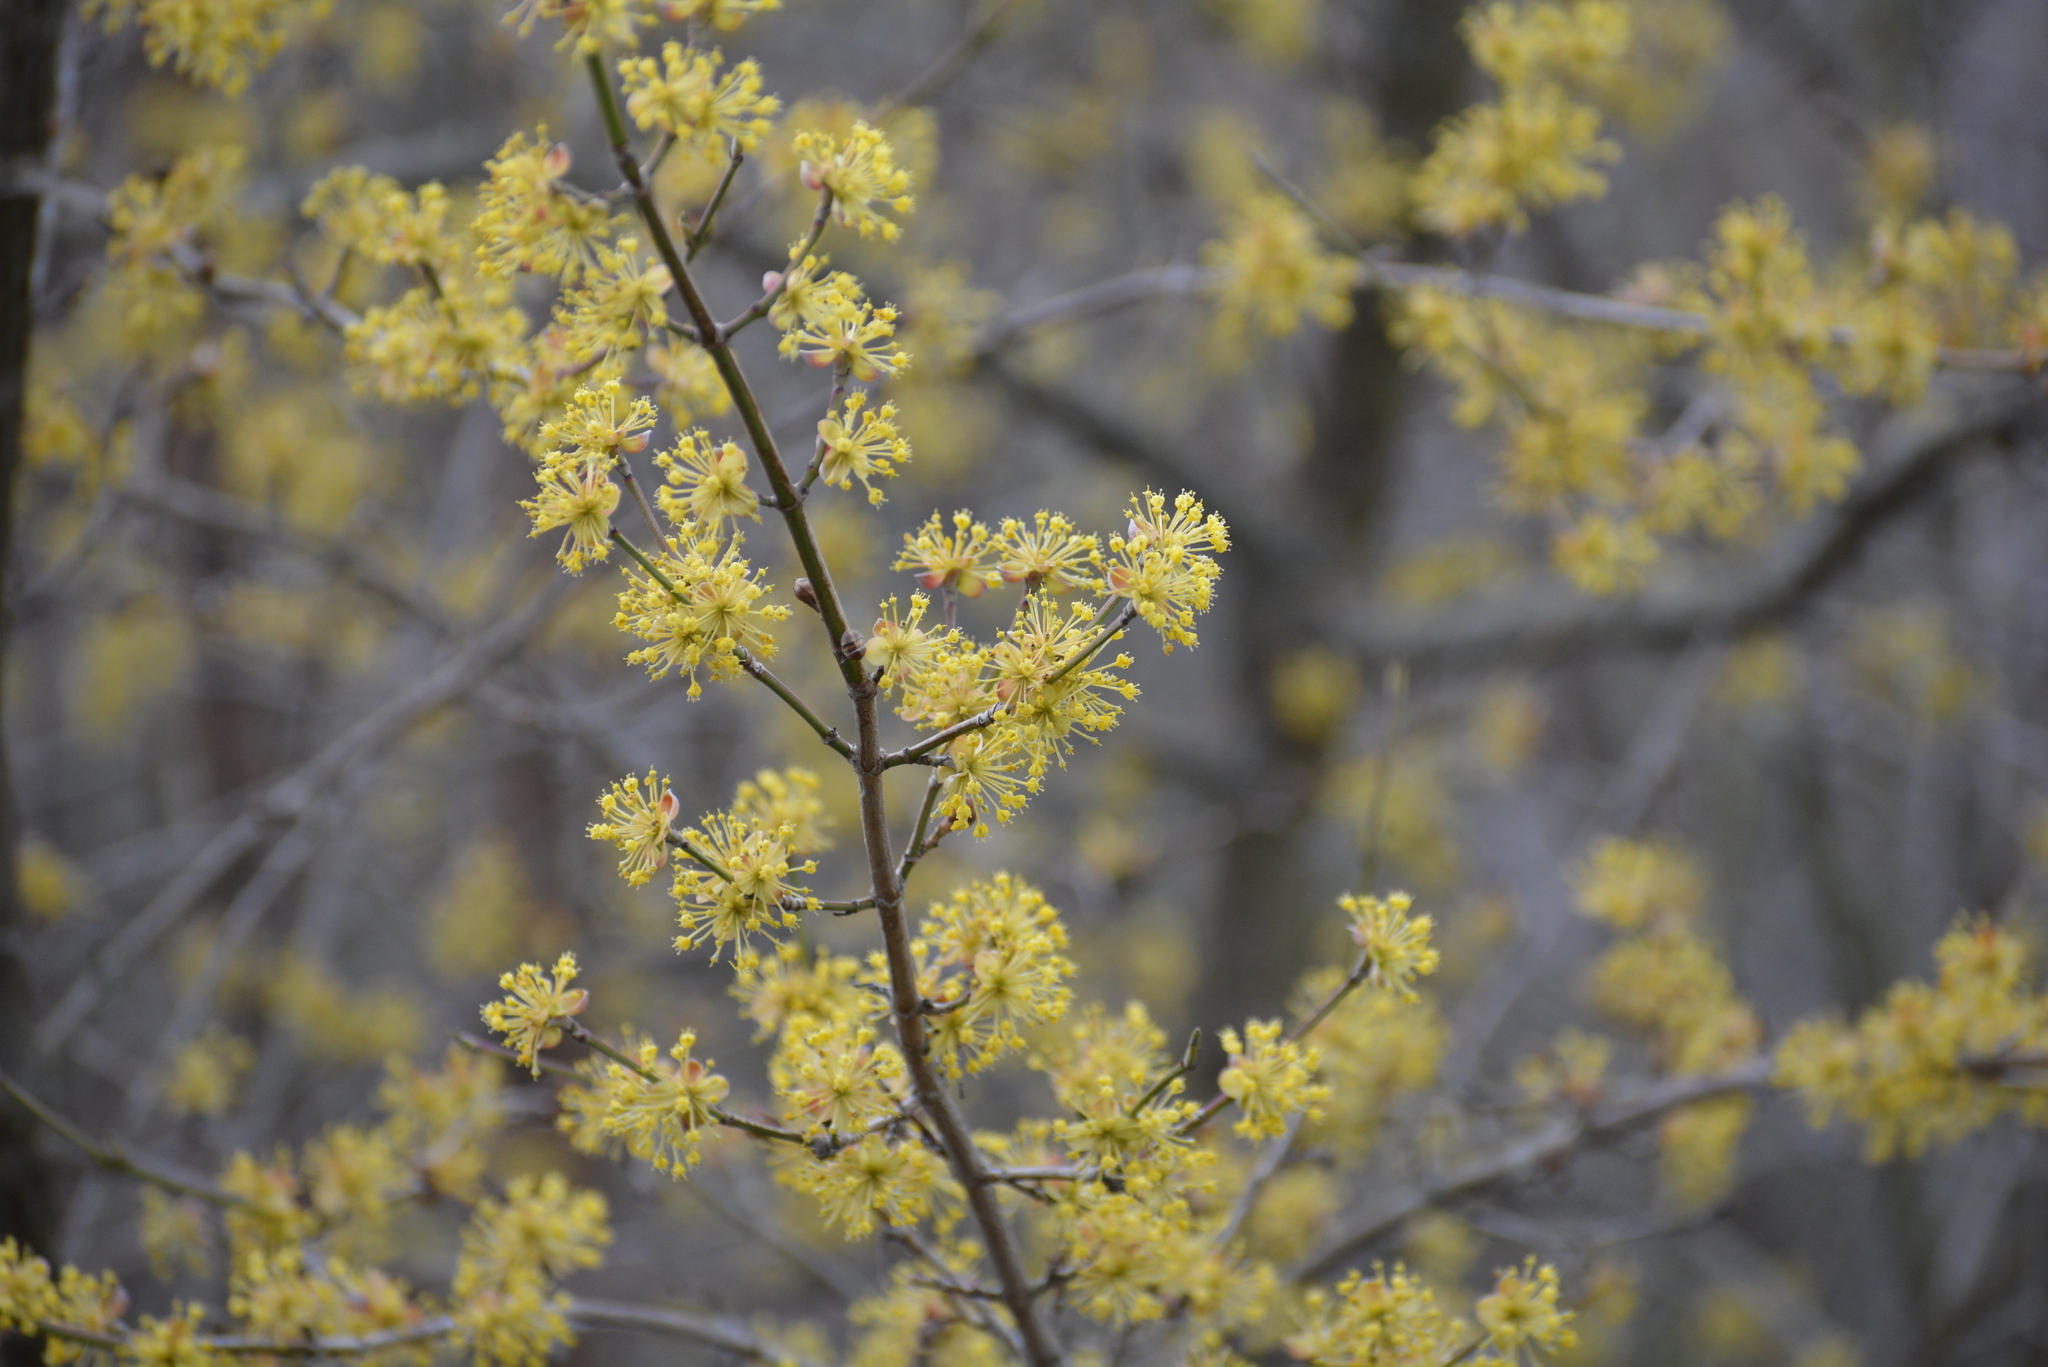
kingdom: Plantae
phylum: Tracheophyta
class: Magnoliopsida
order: Cornales
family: Cornaceae
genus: Cornus
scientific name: Cornus mas
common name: Cornelian-cherry
